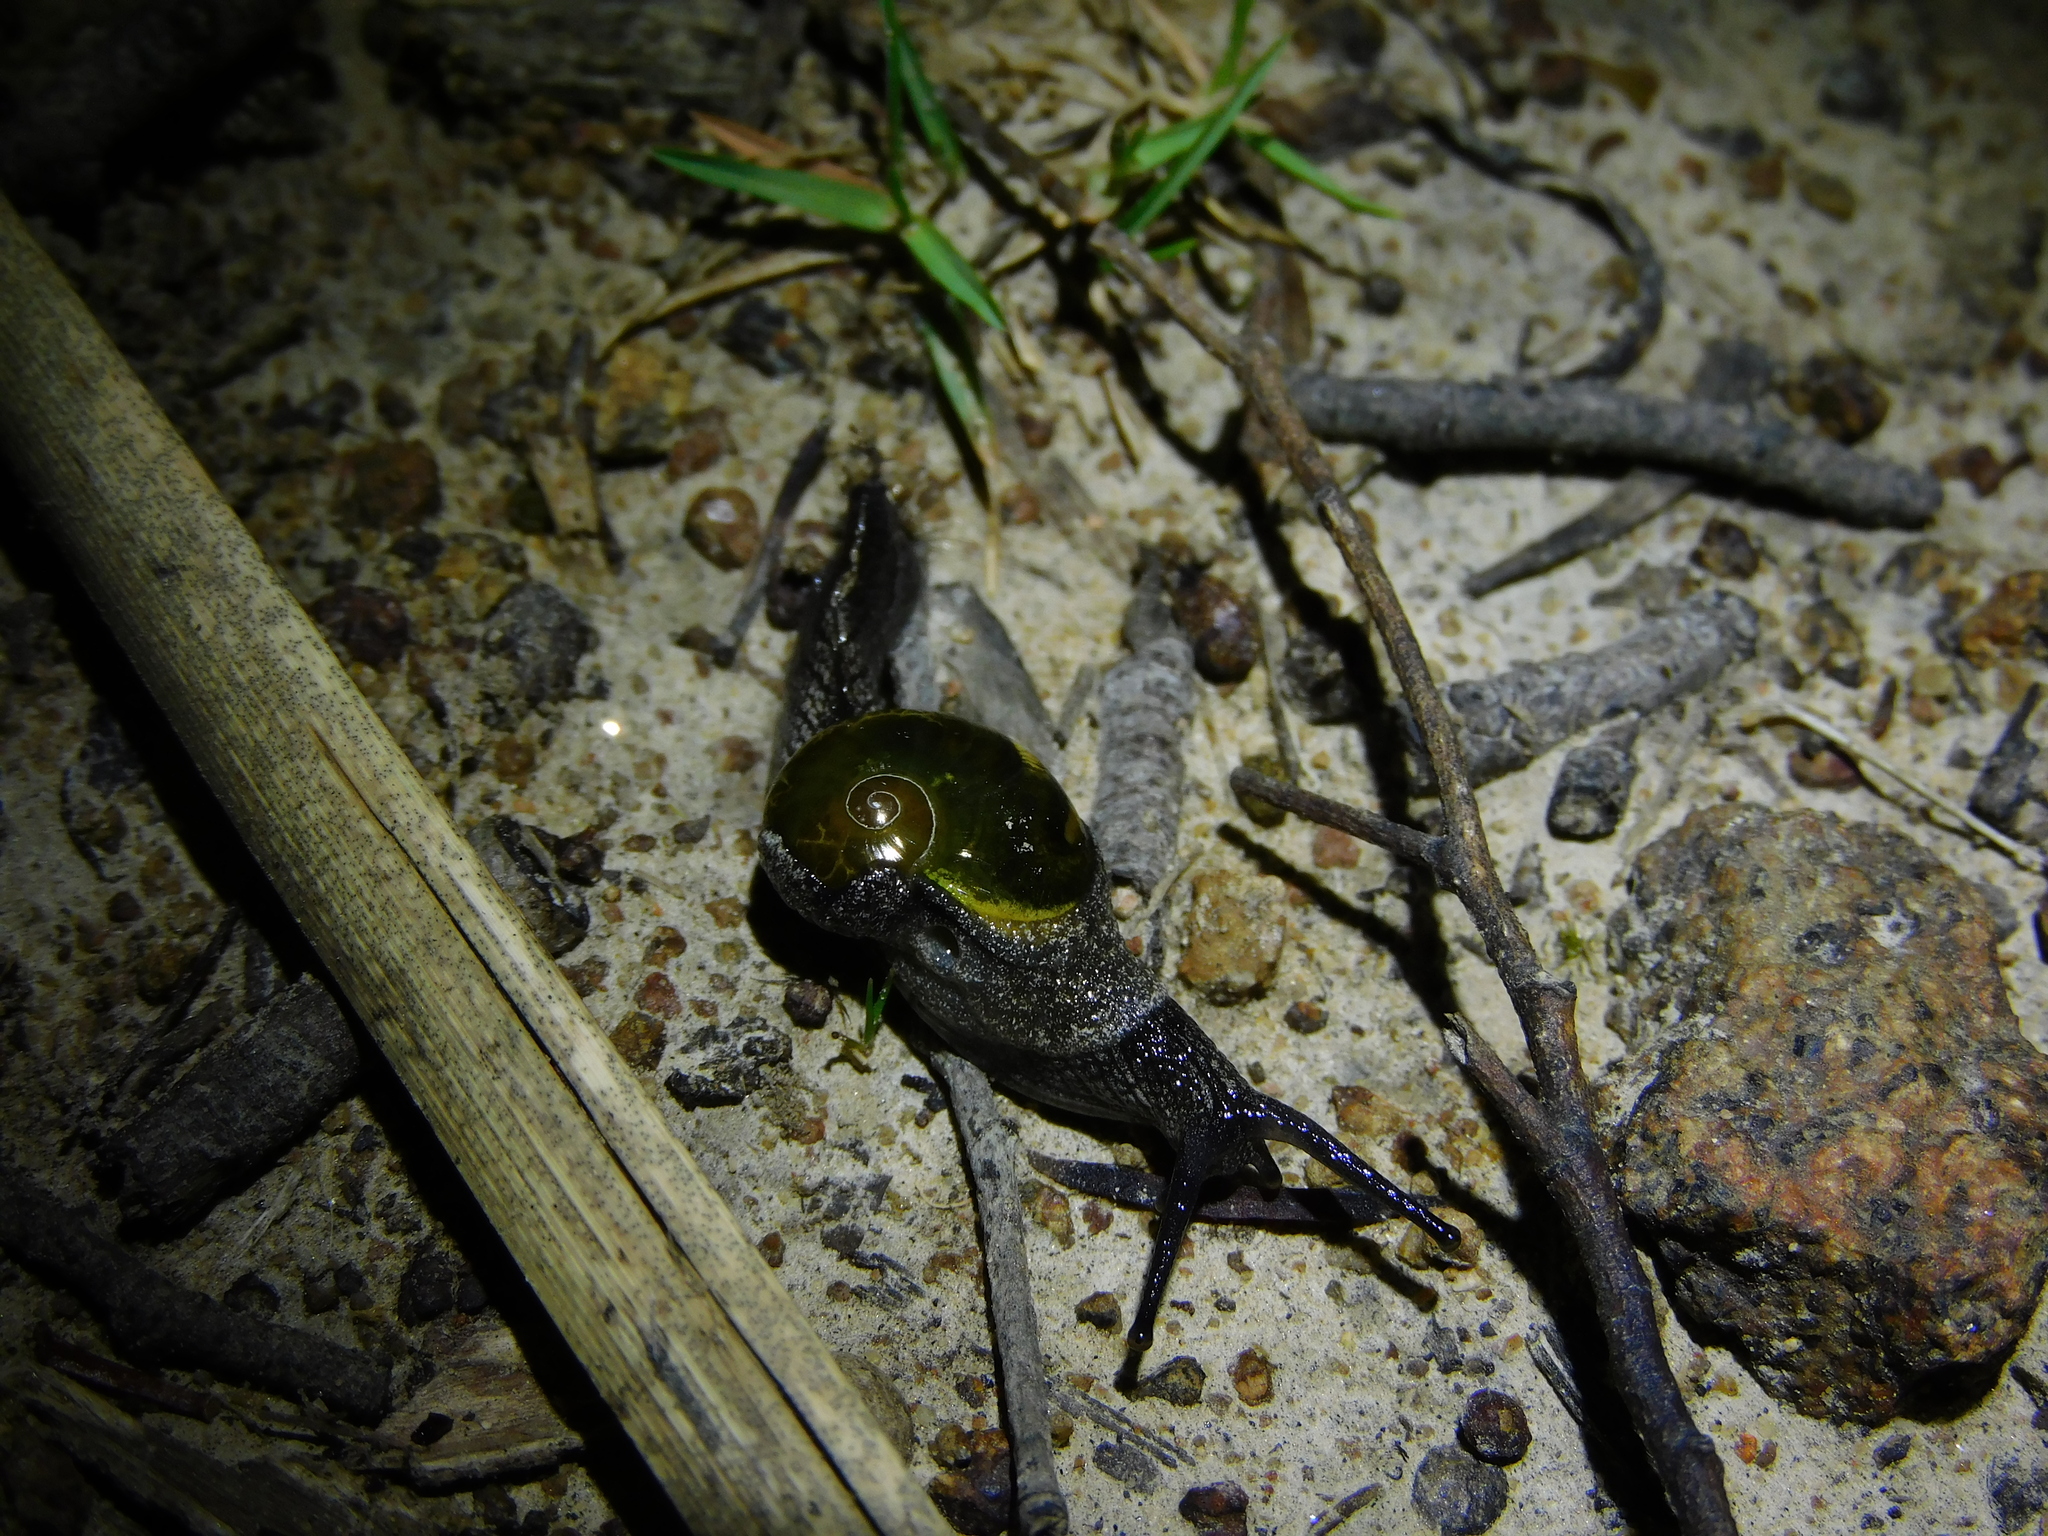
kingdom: Animalia
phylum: Mollusca
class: Gastropoda
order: Stylommatophora
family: Helicarionidae
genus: Helicarion
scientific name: Helicarion cuvieri
